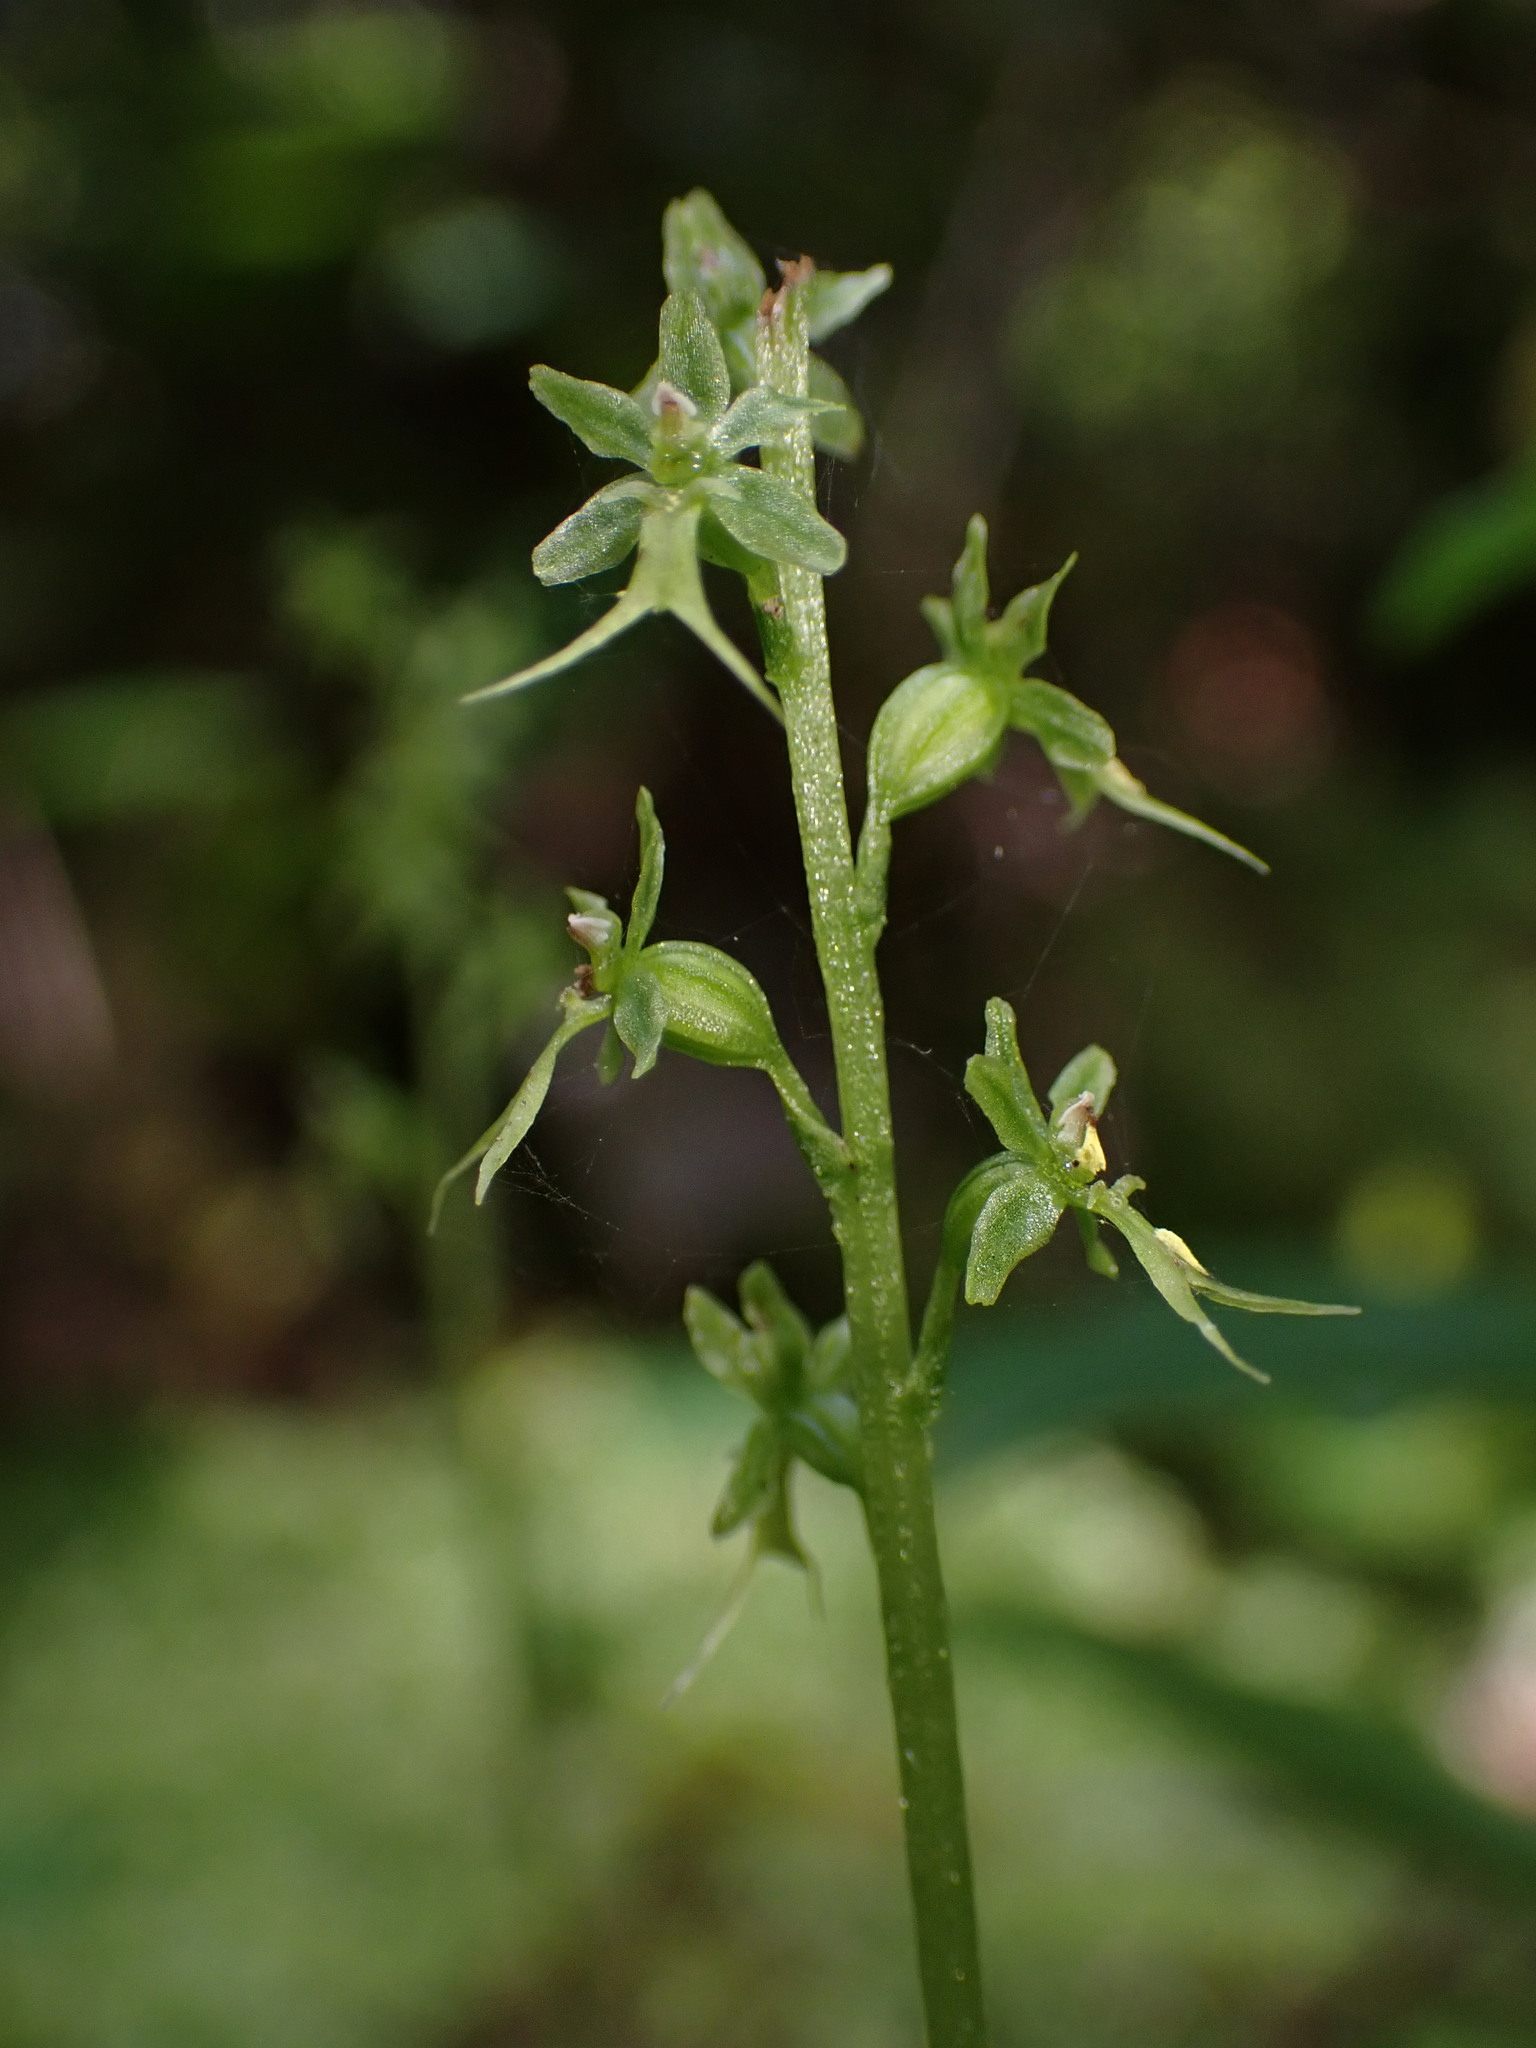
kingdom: Plantae
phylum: Tracheophyta
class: Liliopsida
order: Asparagales
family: Orchidaceae
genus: Neottia
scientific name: Neottia cordata
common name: Lesser twayblade
